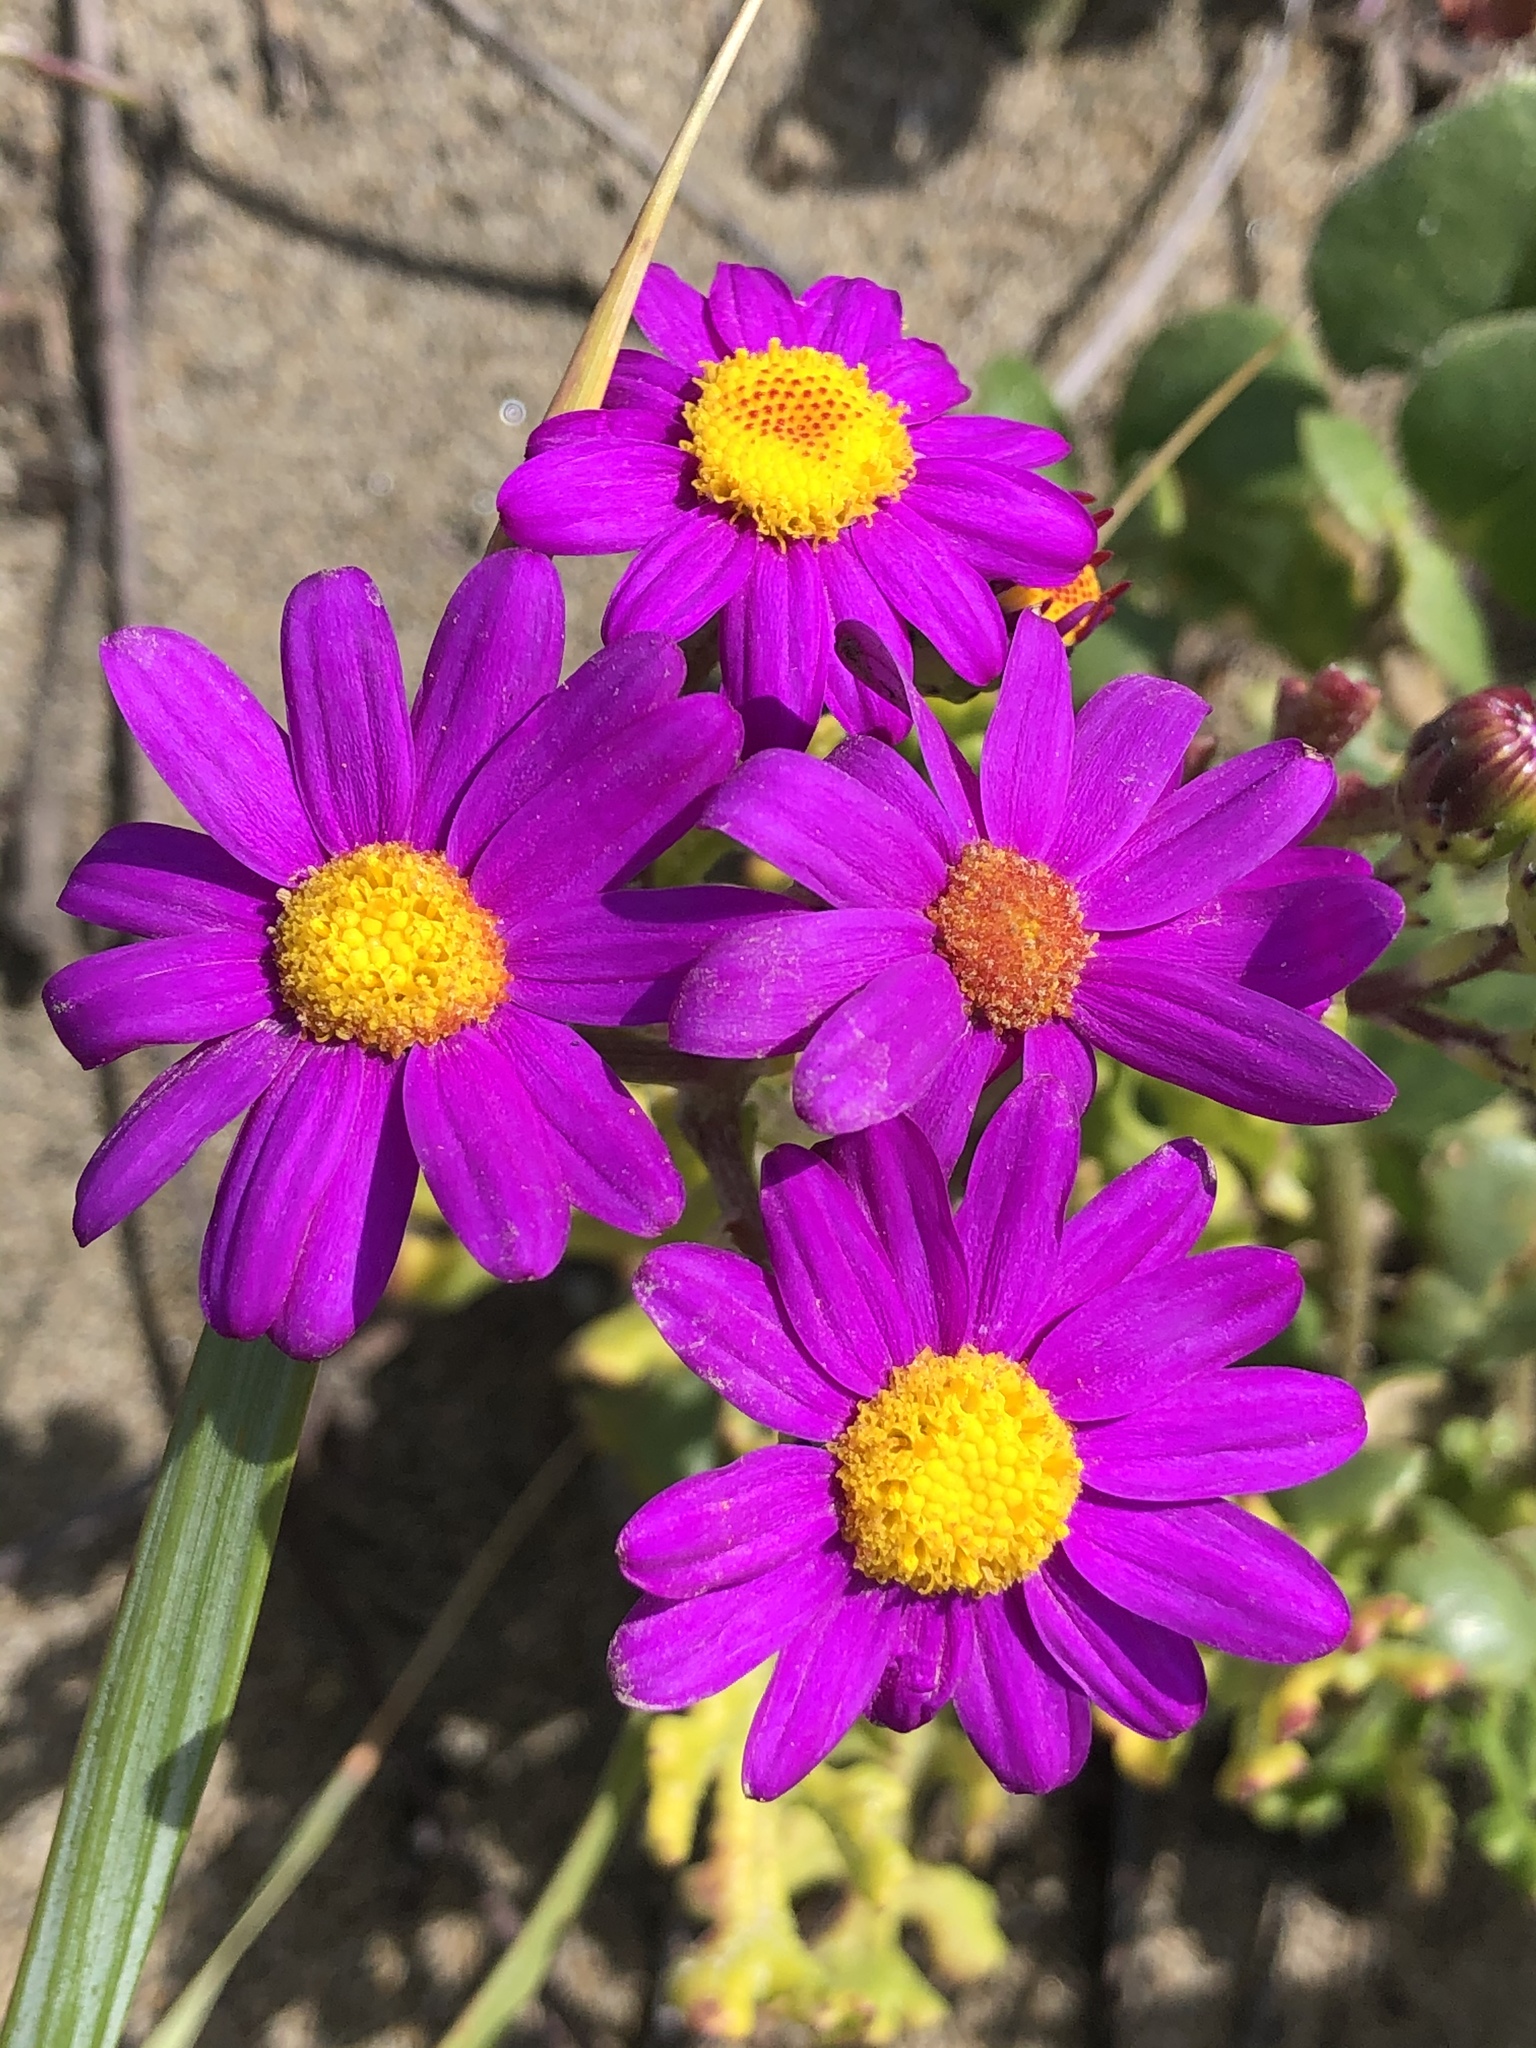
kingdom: Plantae
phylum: Tracheophyta
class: Magnoliopsida
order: Asterales
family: Asteraceae
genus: Senecio
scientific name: Senecio elegans
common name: Purple groundsel
